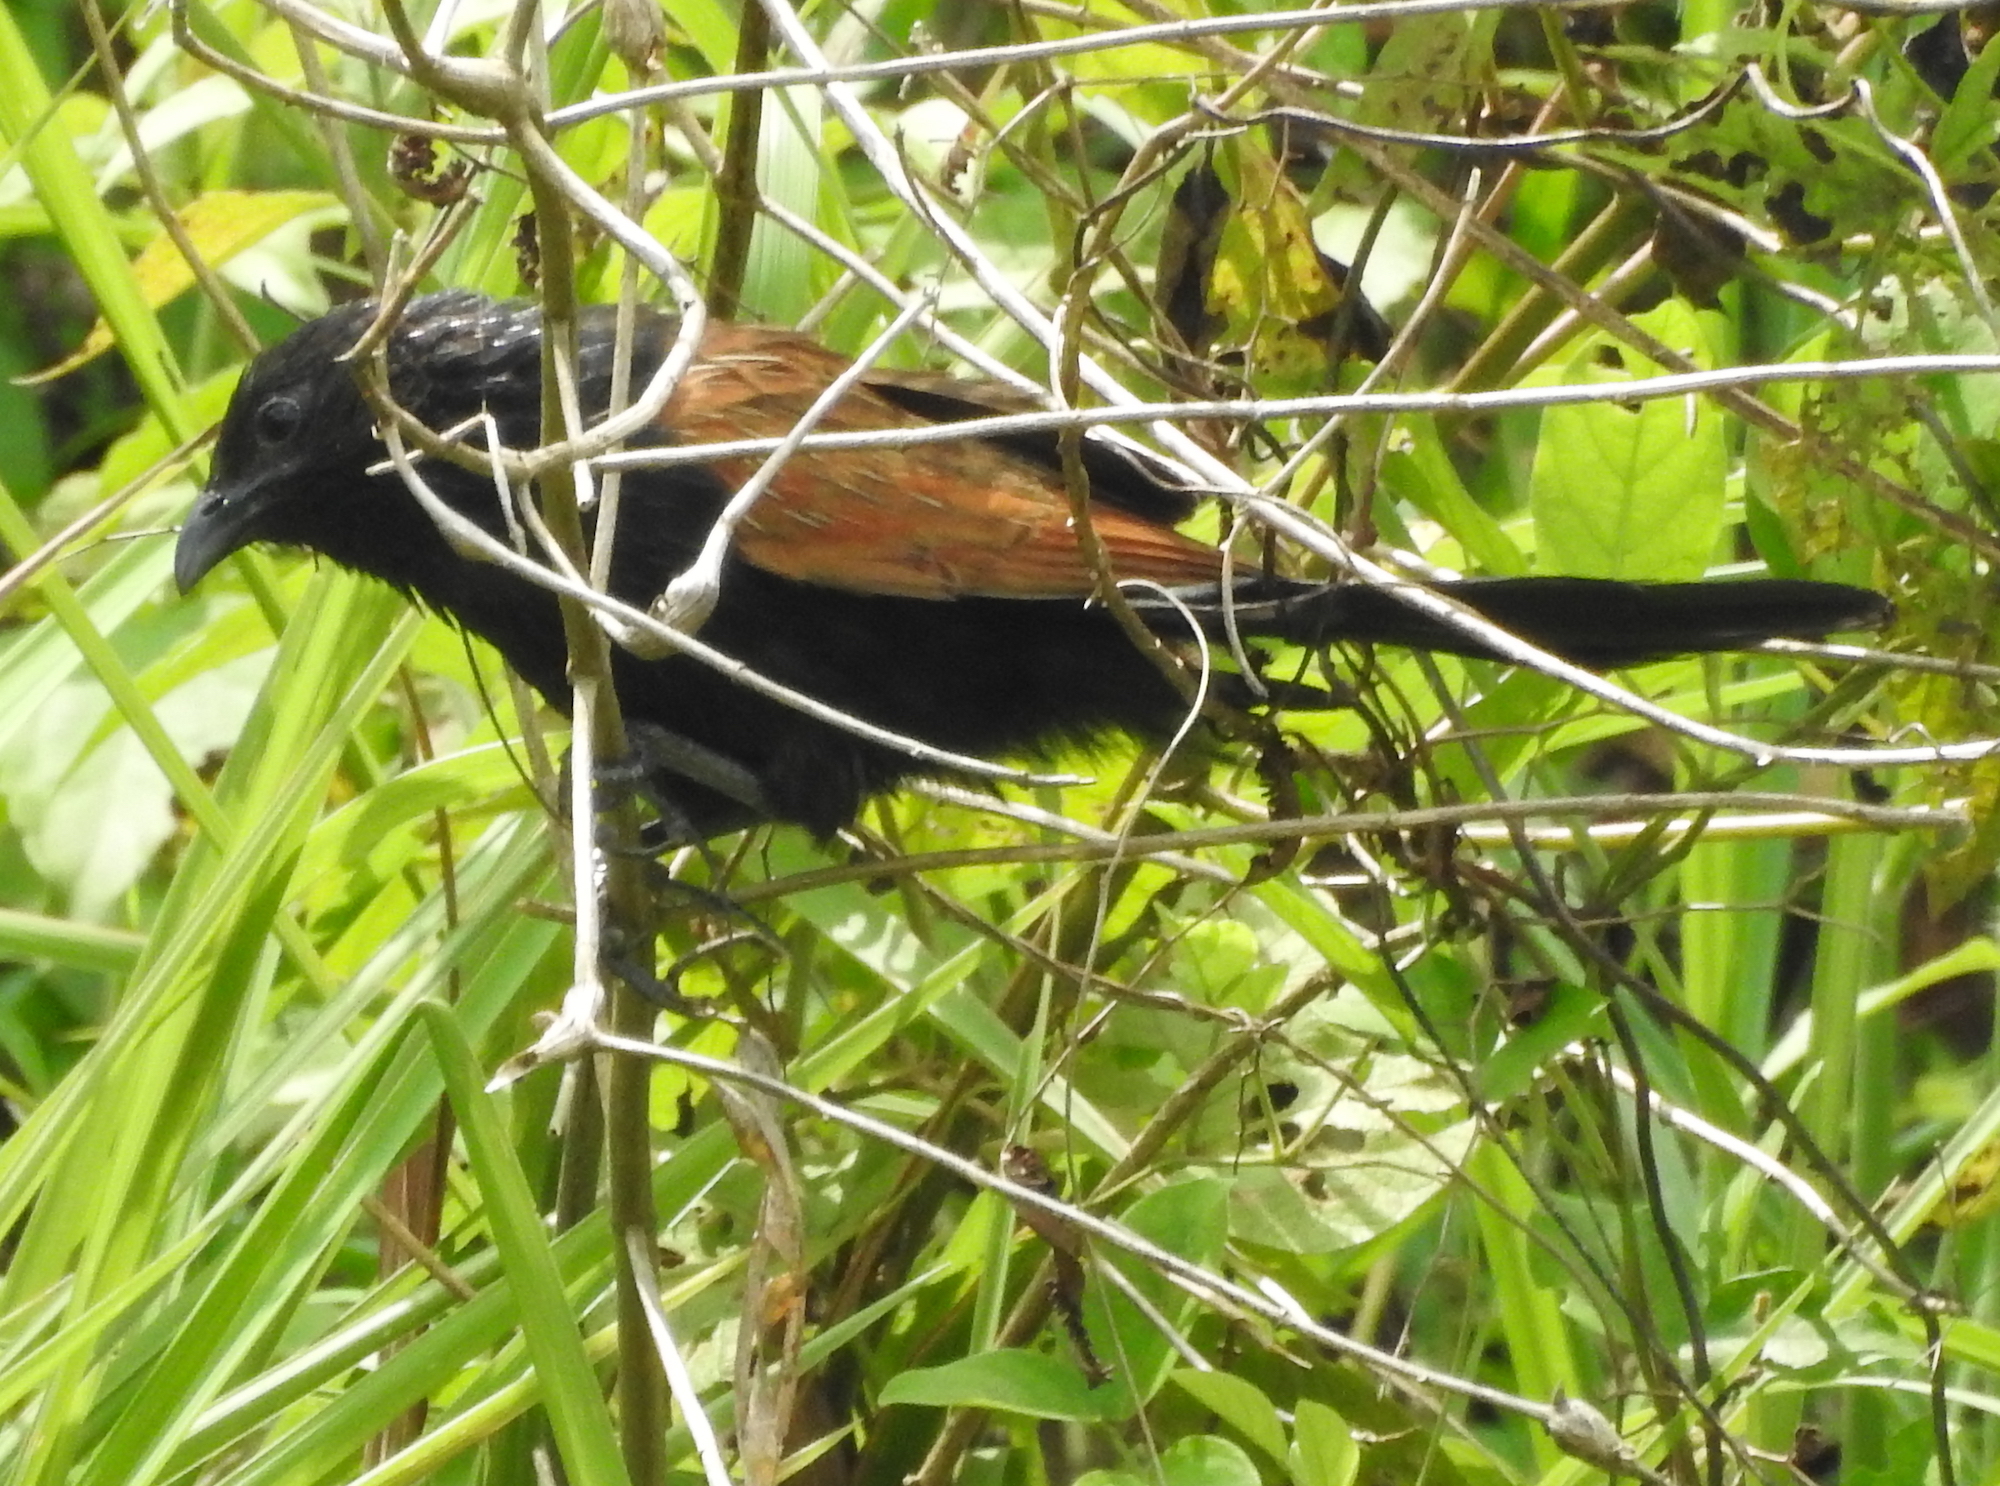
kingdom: Animalia
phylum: Chordata
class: Aves
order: Cuculiformes
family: Cuculidae
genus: Centropus
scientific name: Centropus bengalensis
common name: Lesser coucal
